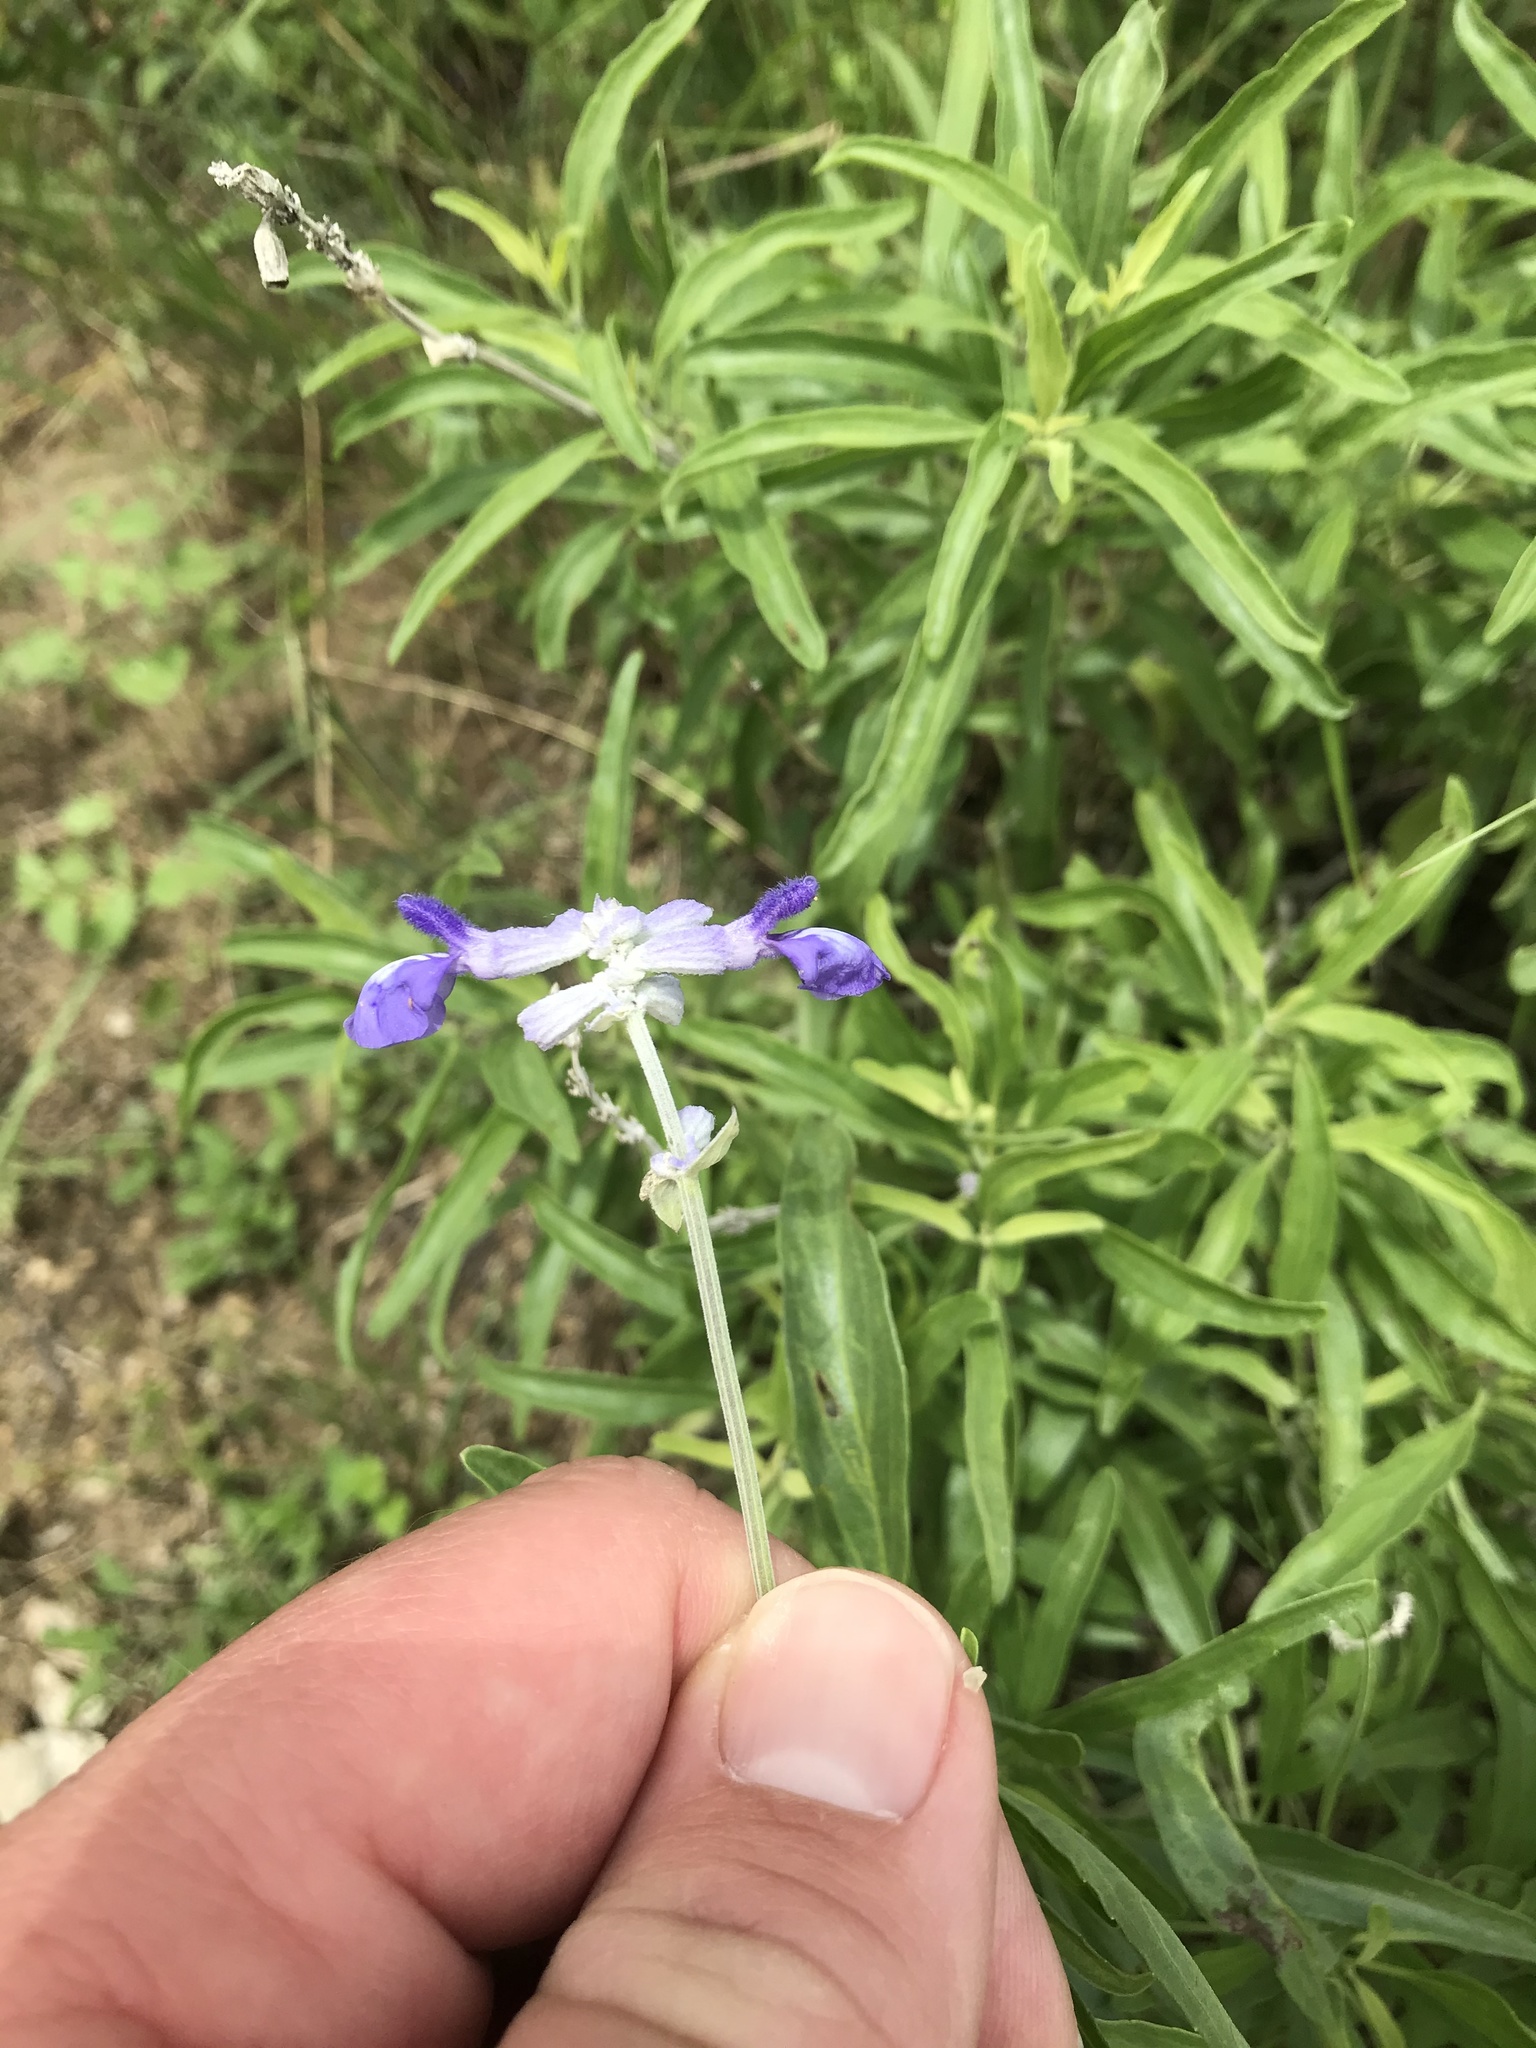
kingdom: Plantae
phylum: Tracheophyta
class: Magnoliopsida
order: Lamiales
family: Lamiaceae
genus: Salvia
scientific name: Salvia farinacea
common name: Mealy sage
